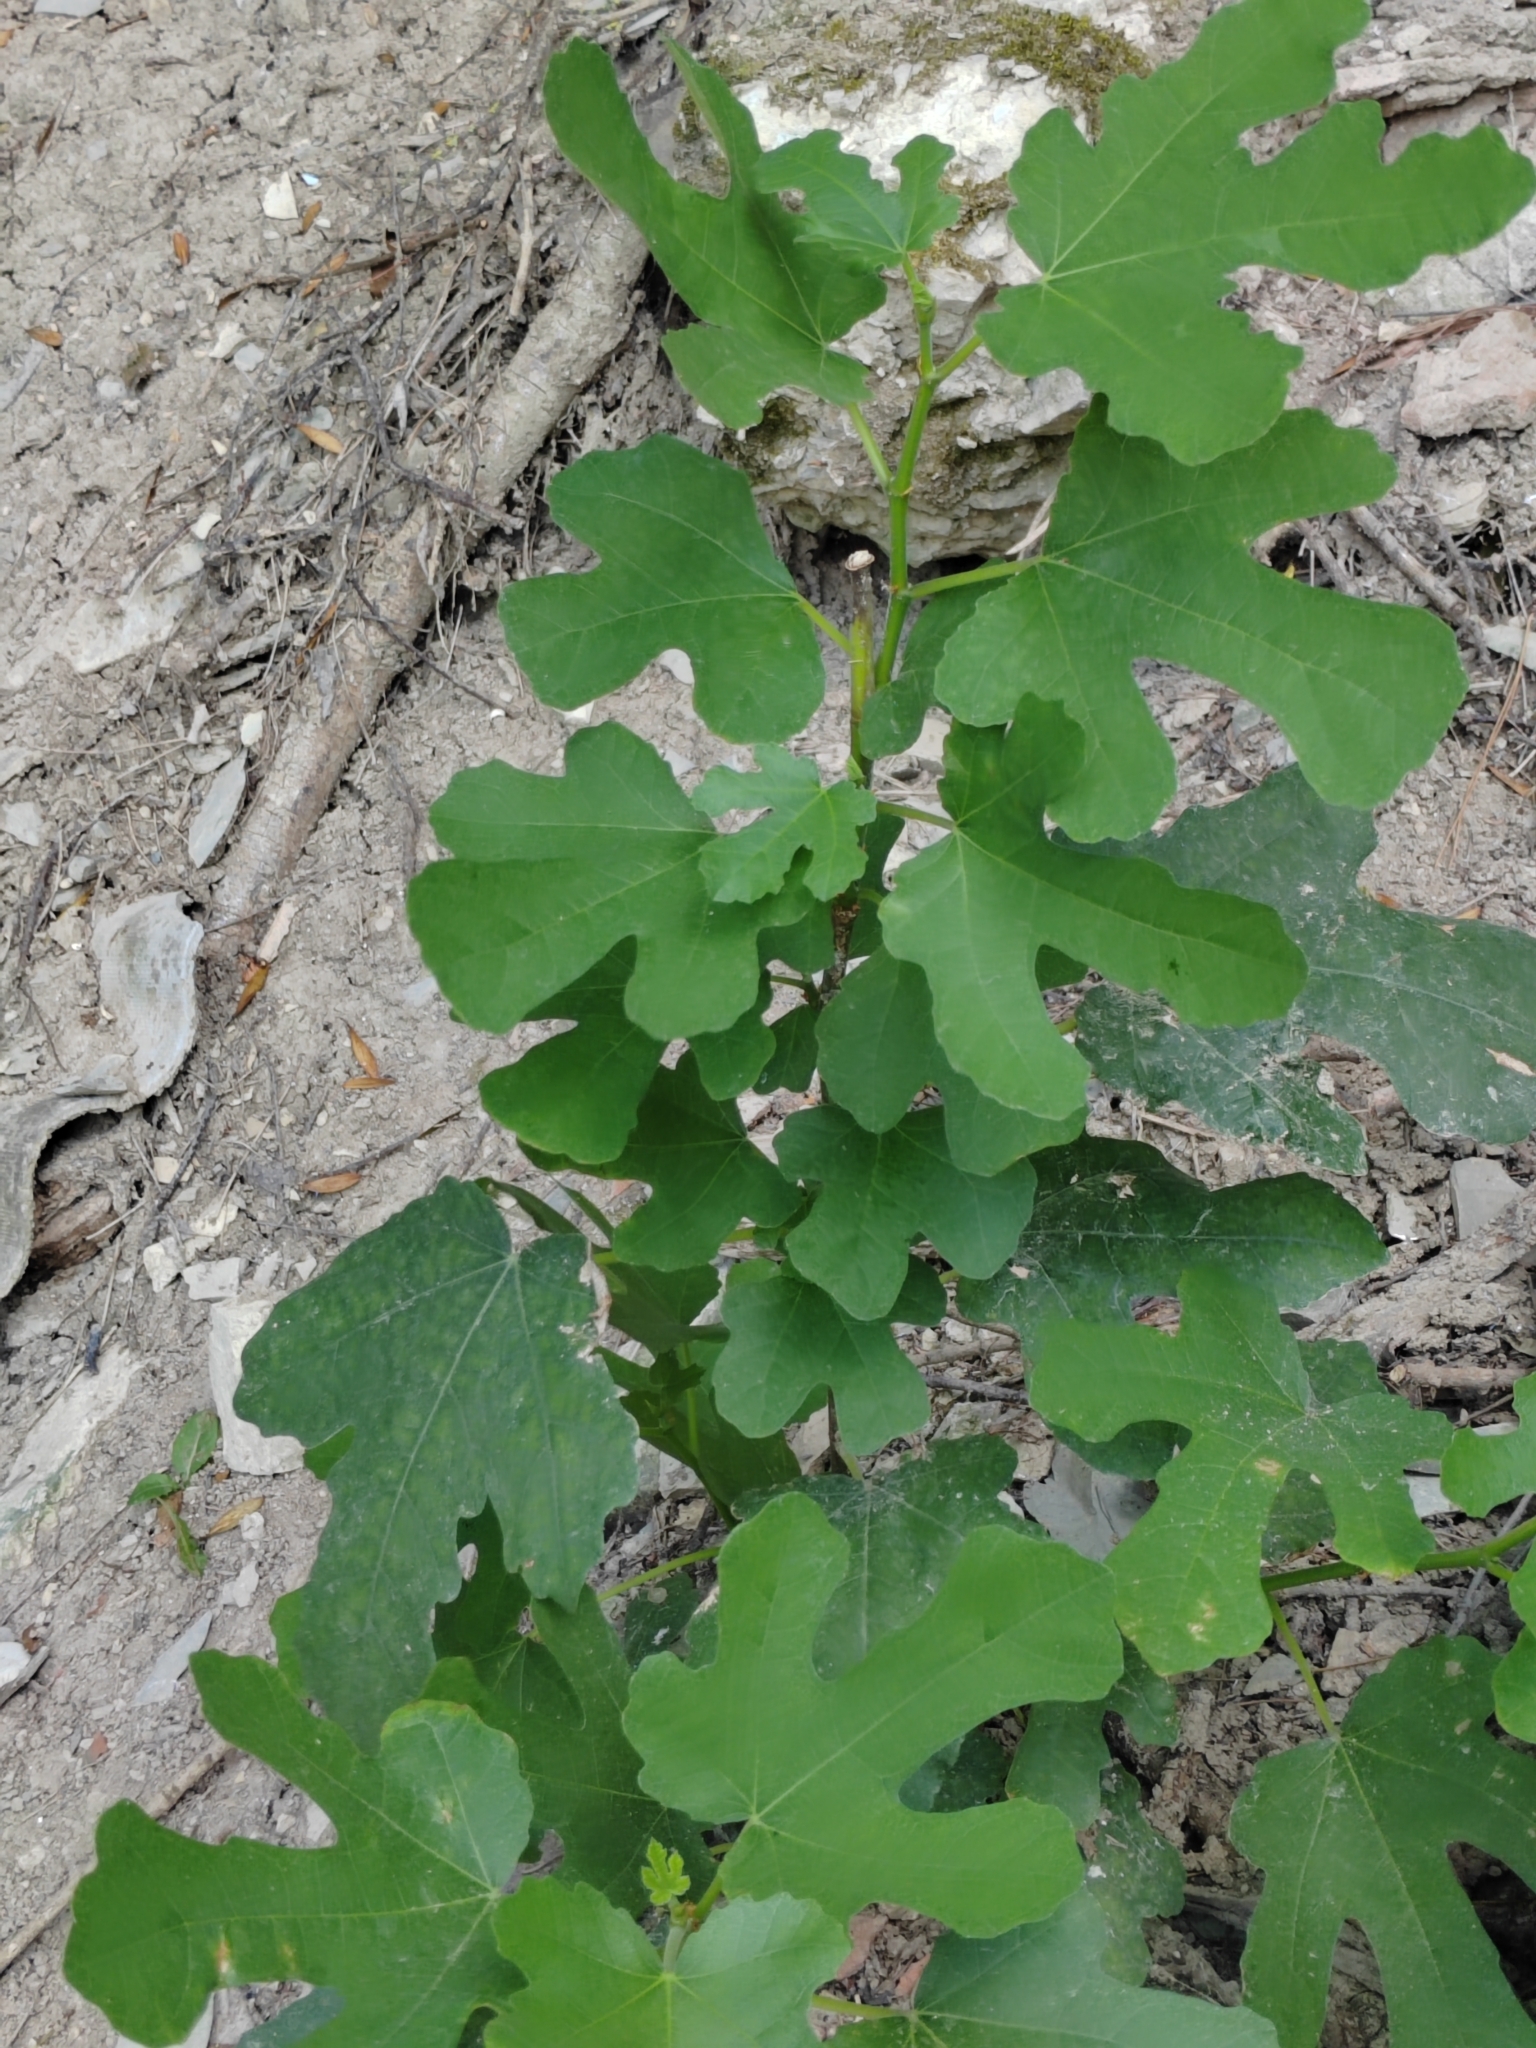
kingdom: Plantae
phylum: Tracheophyta
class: Magnoliopsida
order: Rosales
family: Moraceae
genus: Ficus
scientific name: Ficus carica
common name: Fig
